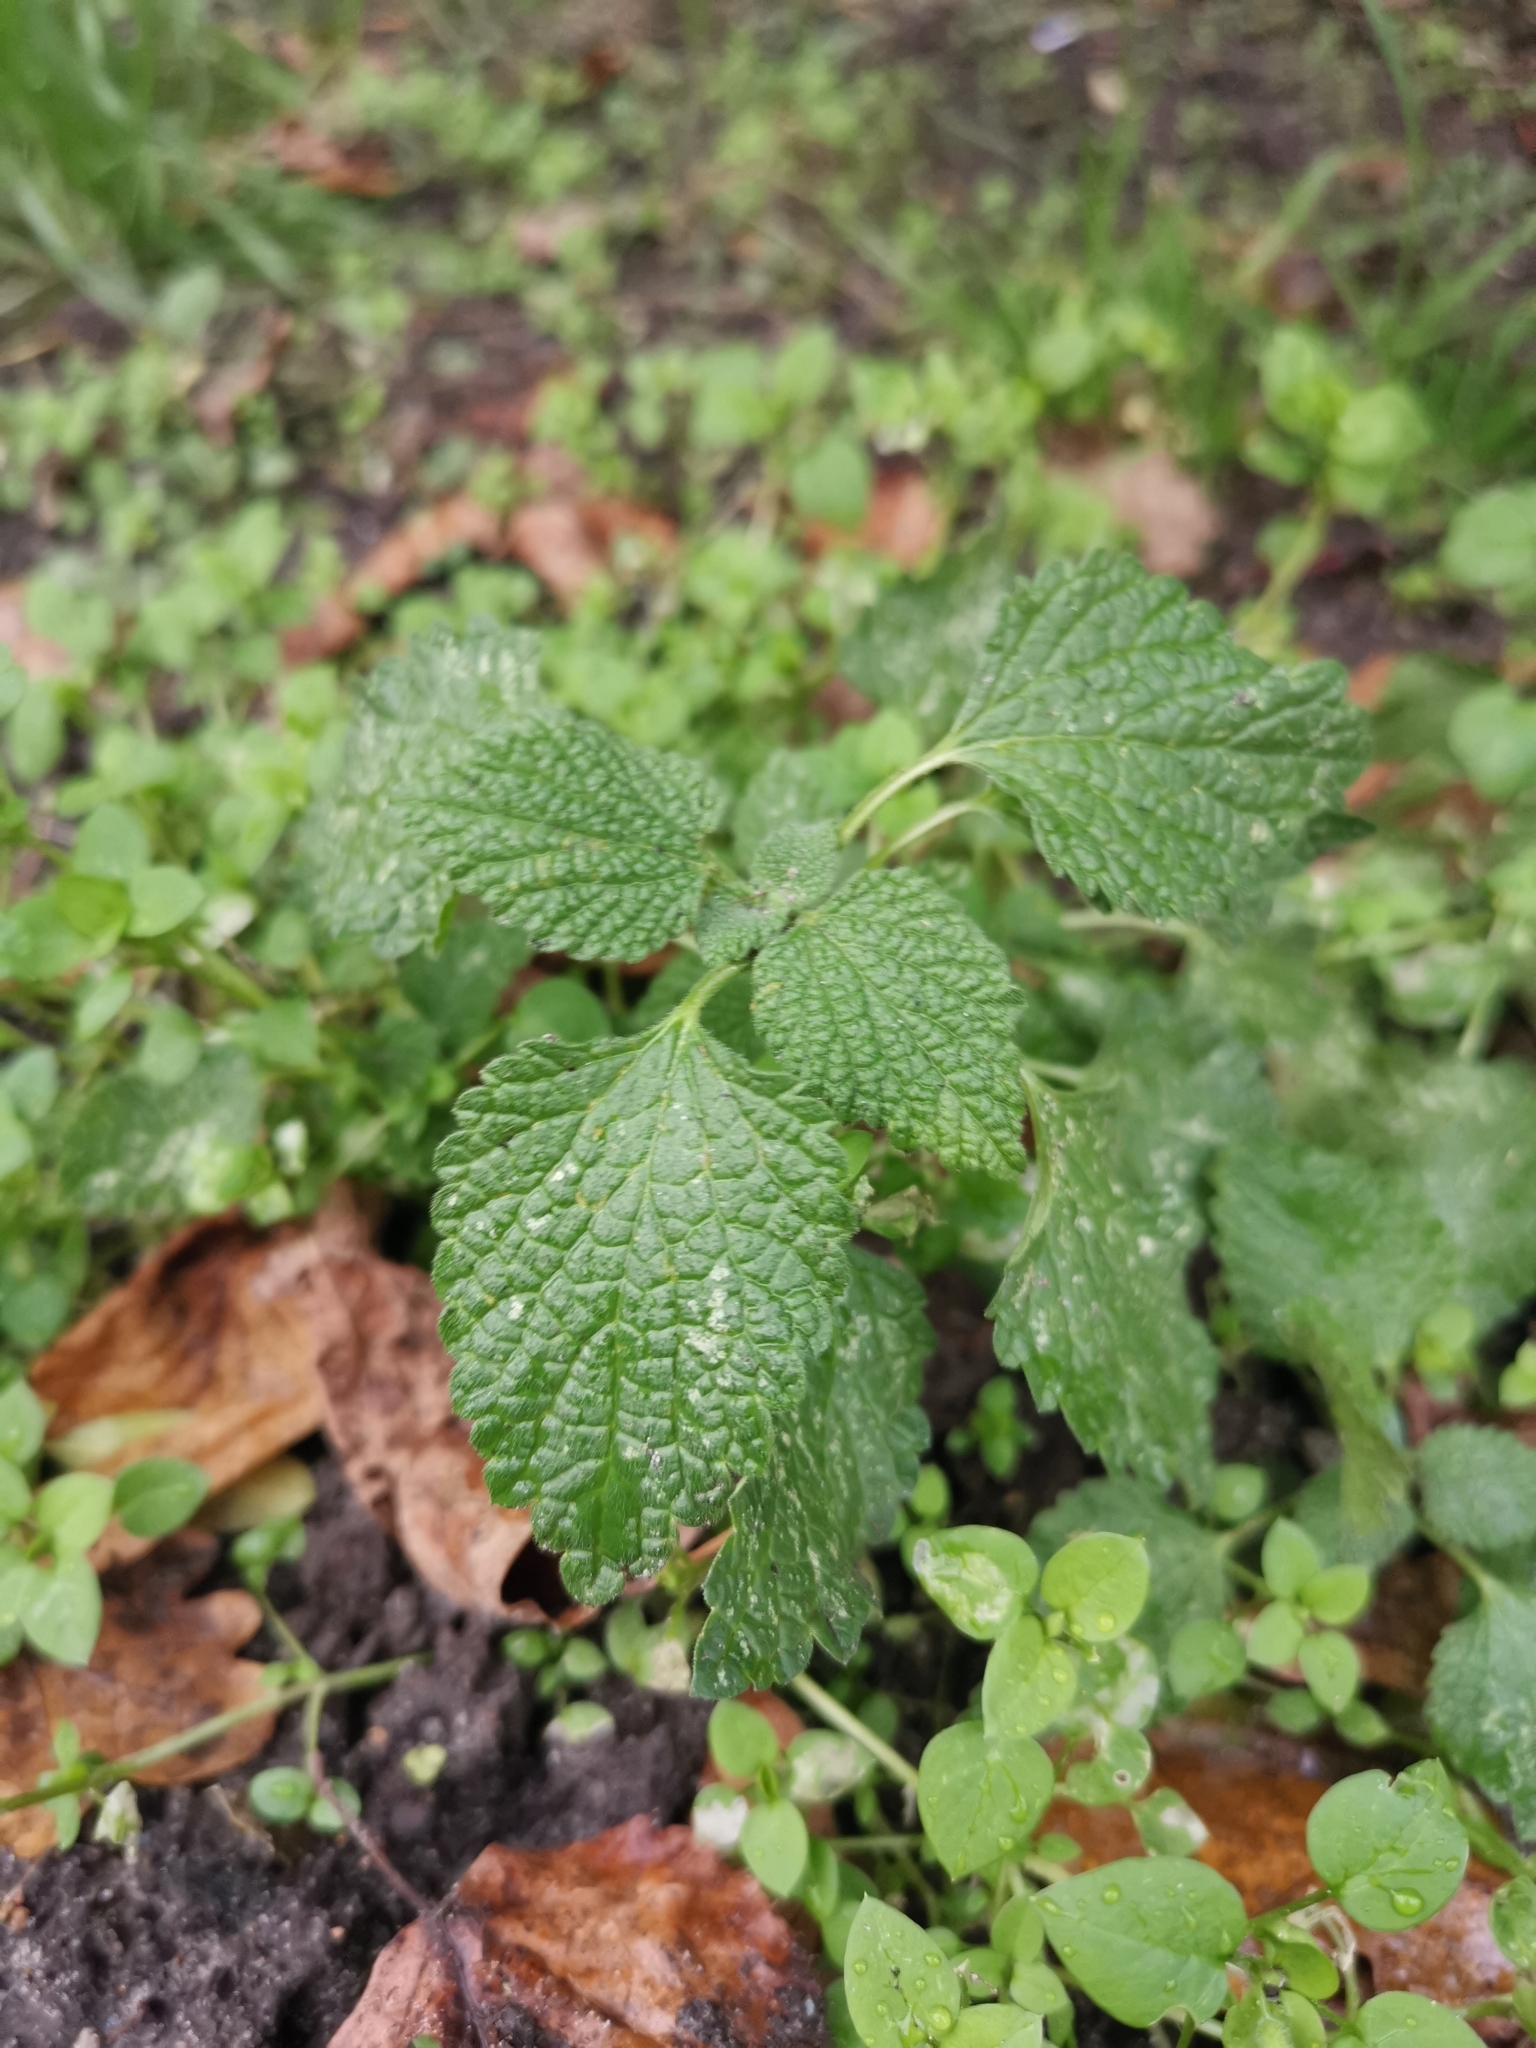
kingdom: Plantae
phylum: Tracheophyta
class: Magnoliopsida
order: Lamiales
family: Lamiaceae
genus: Ballota
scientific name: Ballota nigra
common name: Black horehound
